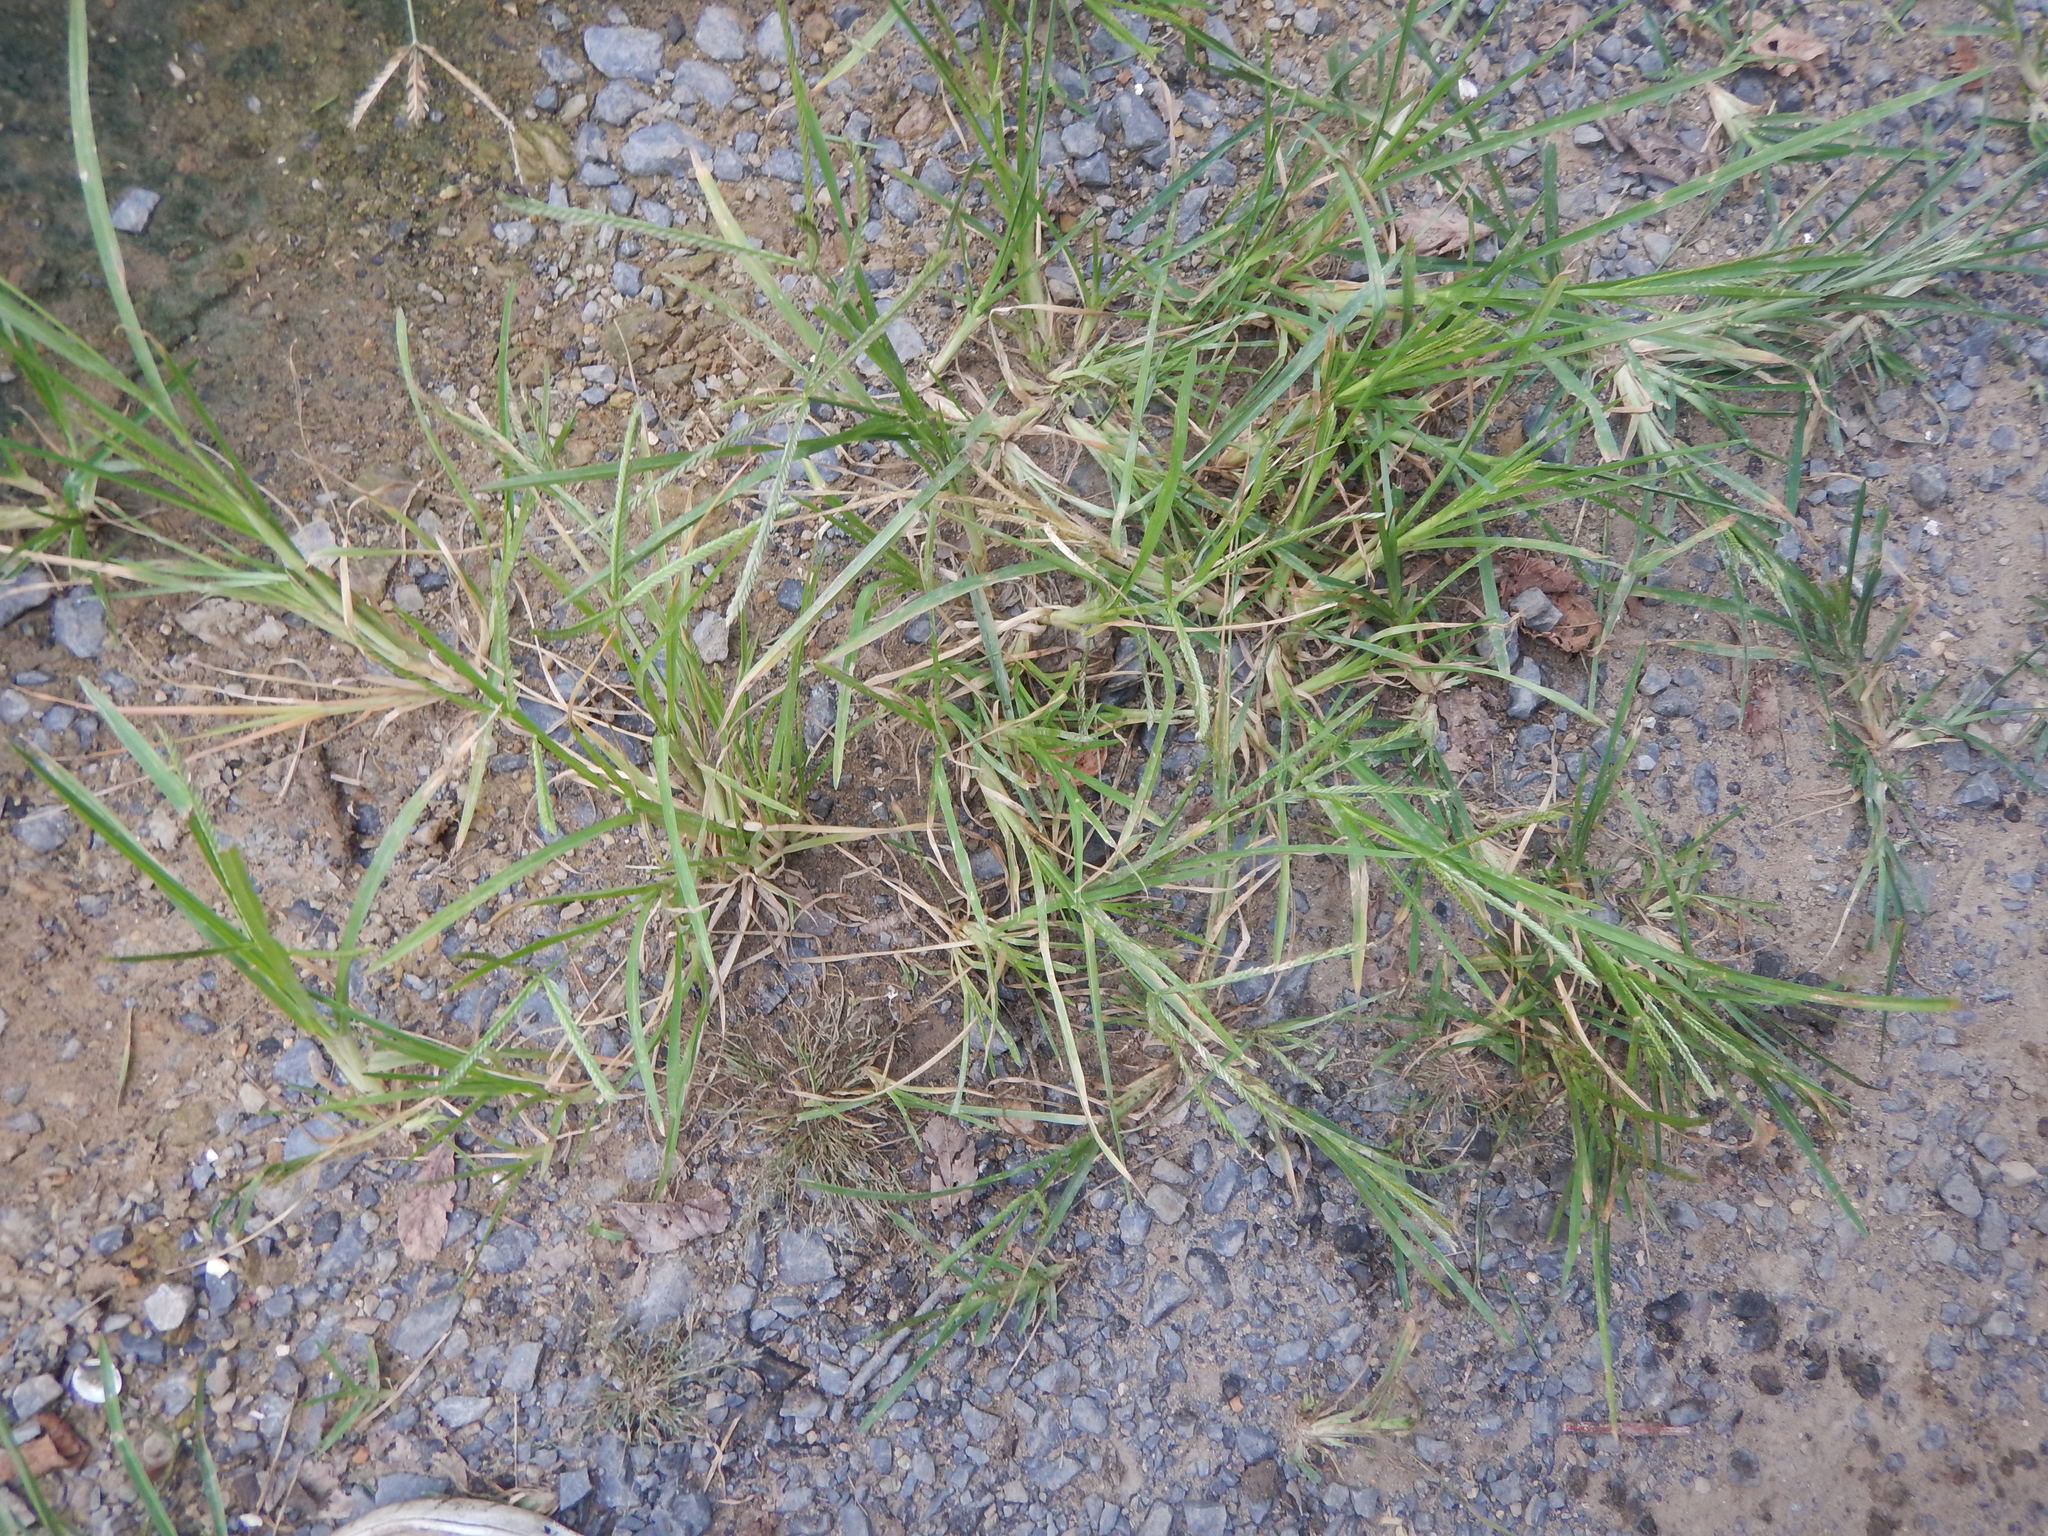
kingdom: Plantae
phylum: Tracheophyta
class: Liliopsida
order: Poales
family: Poaceae
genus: Eleusine
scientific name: Eleusine indica
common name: Yard-grass
